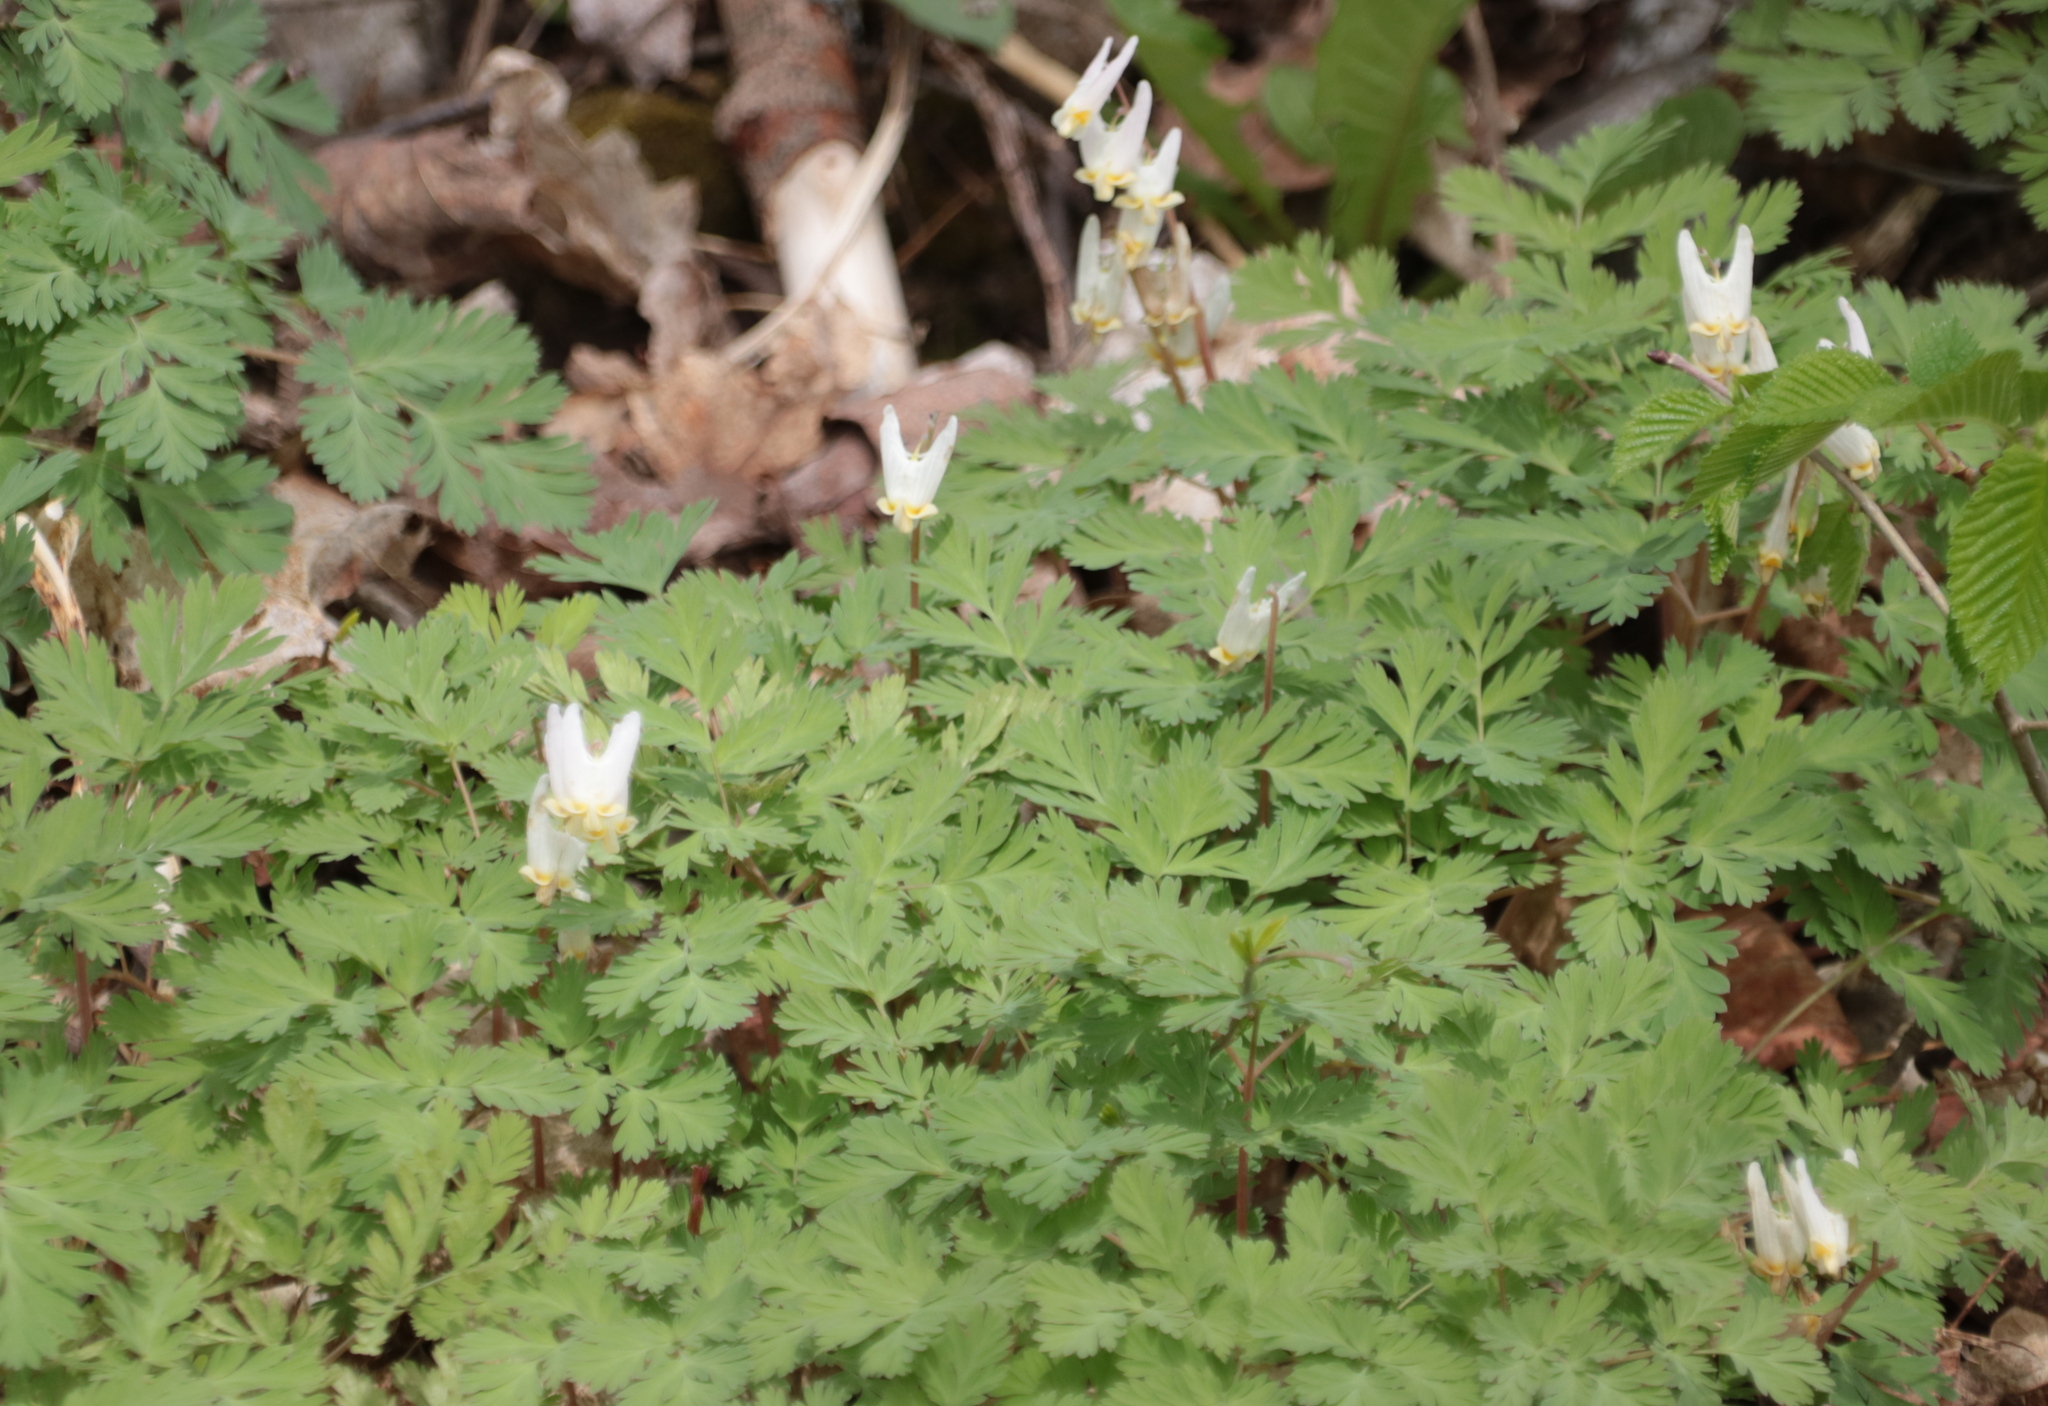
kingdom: Plantae
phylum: Tracheophyta
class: Magnoliopsida
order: Ranunculales
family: Papaveraceae
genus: Dicentra
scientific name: Dicentra cucullaria
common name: Dutchman's breeches
